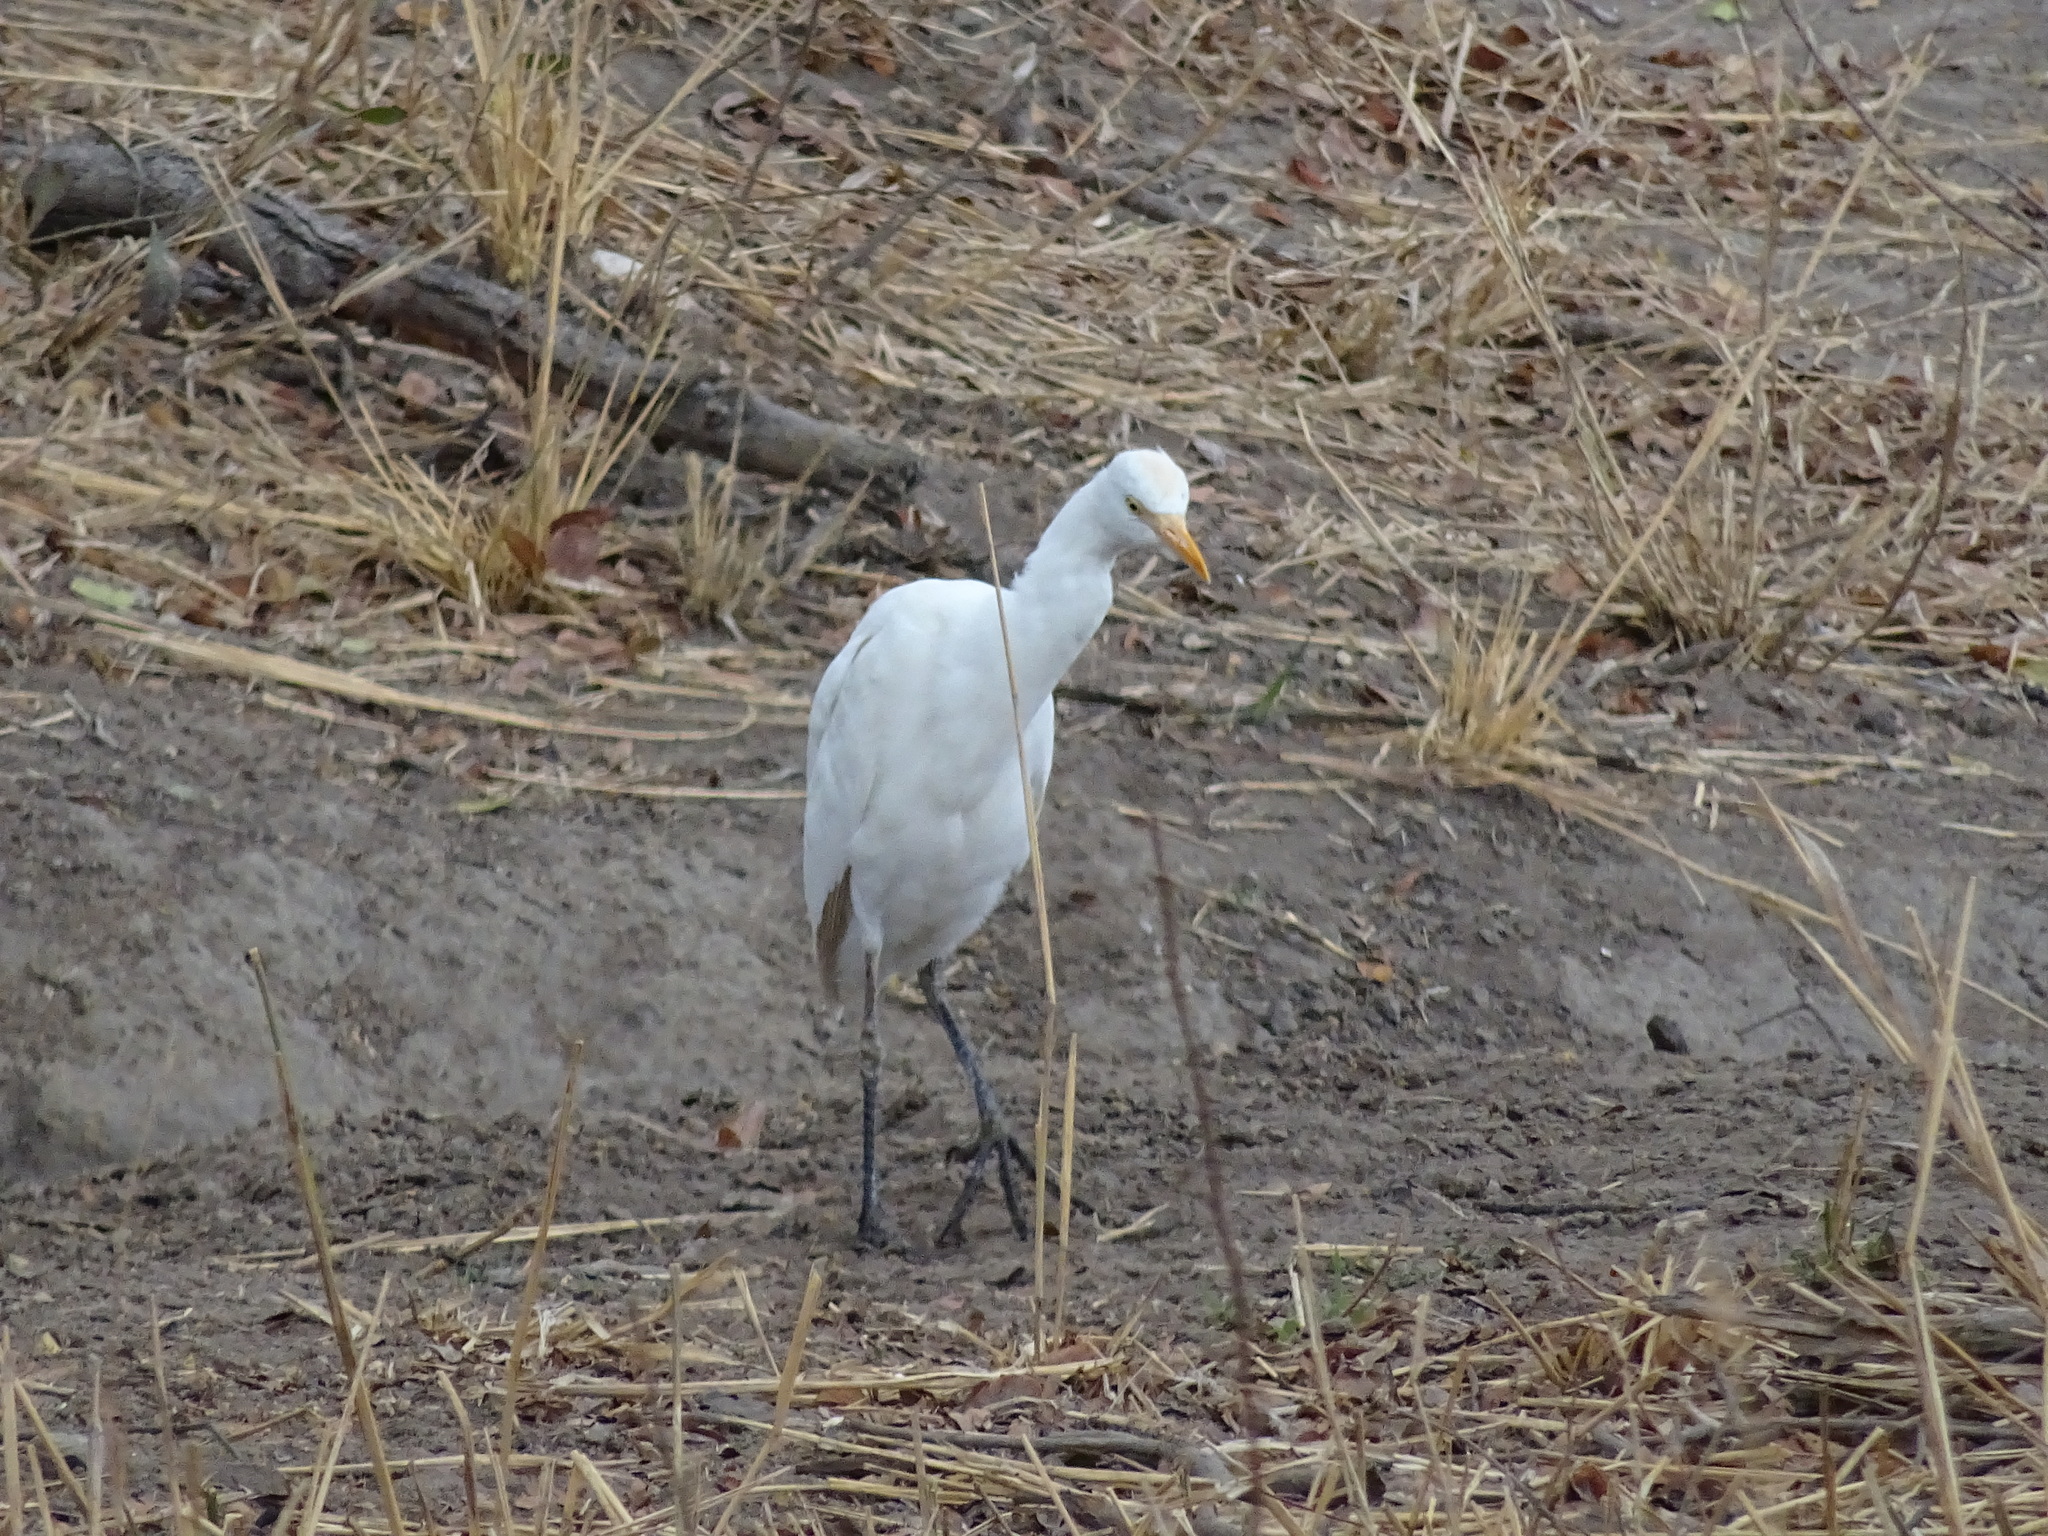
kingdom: Animalia
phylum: Chordata
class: Aves
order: Pelecaniformes
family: Ardeidae
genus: Bubulcus
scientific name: Bubulcus ibis
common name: Cattle egret
